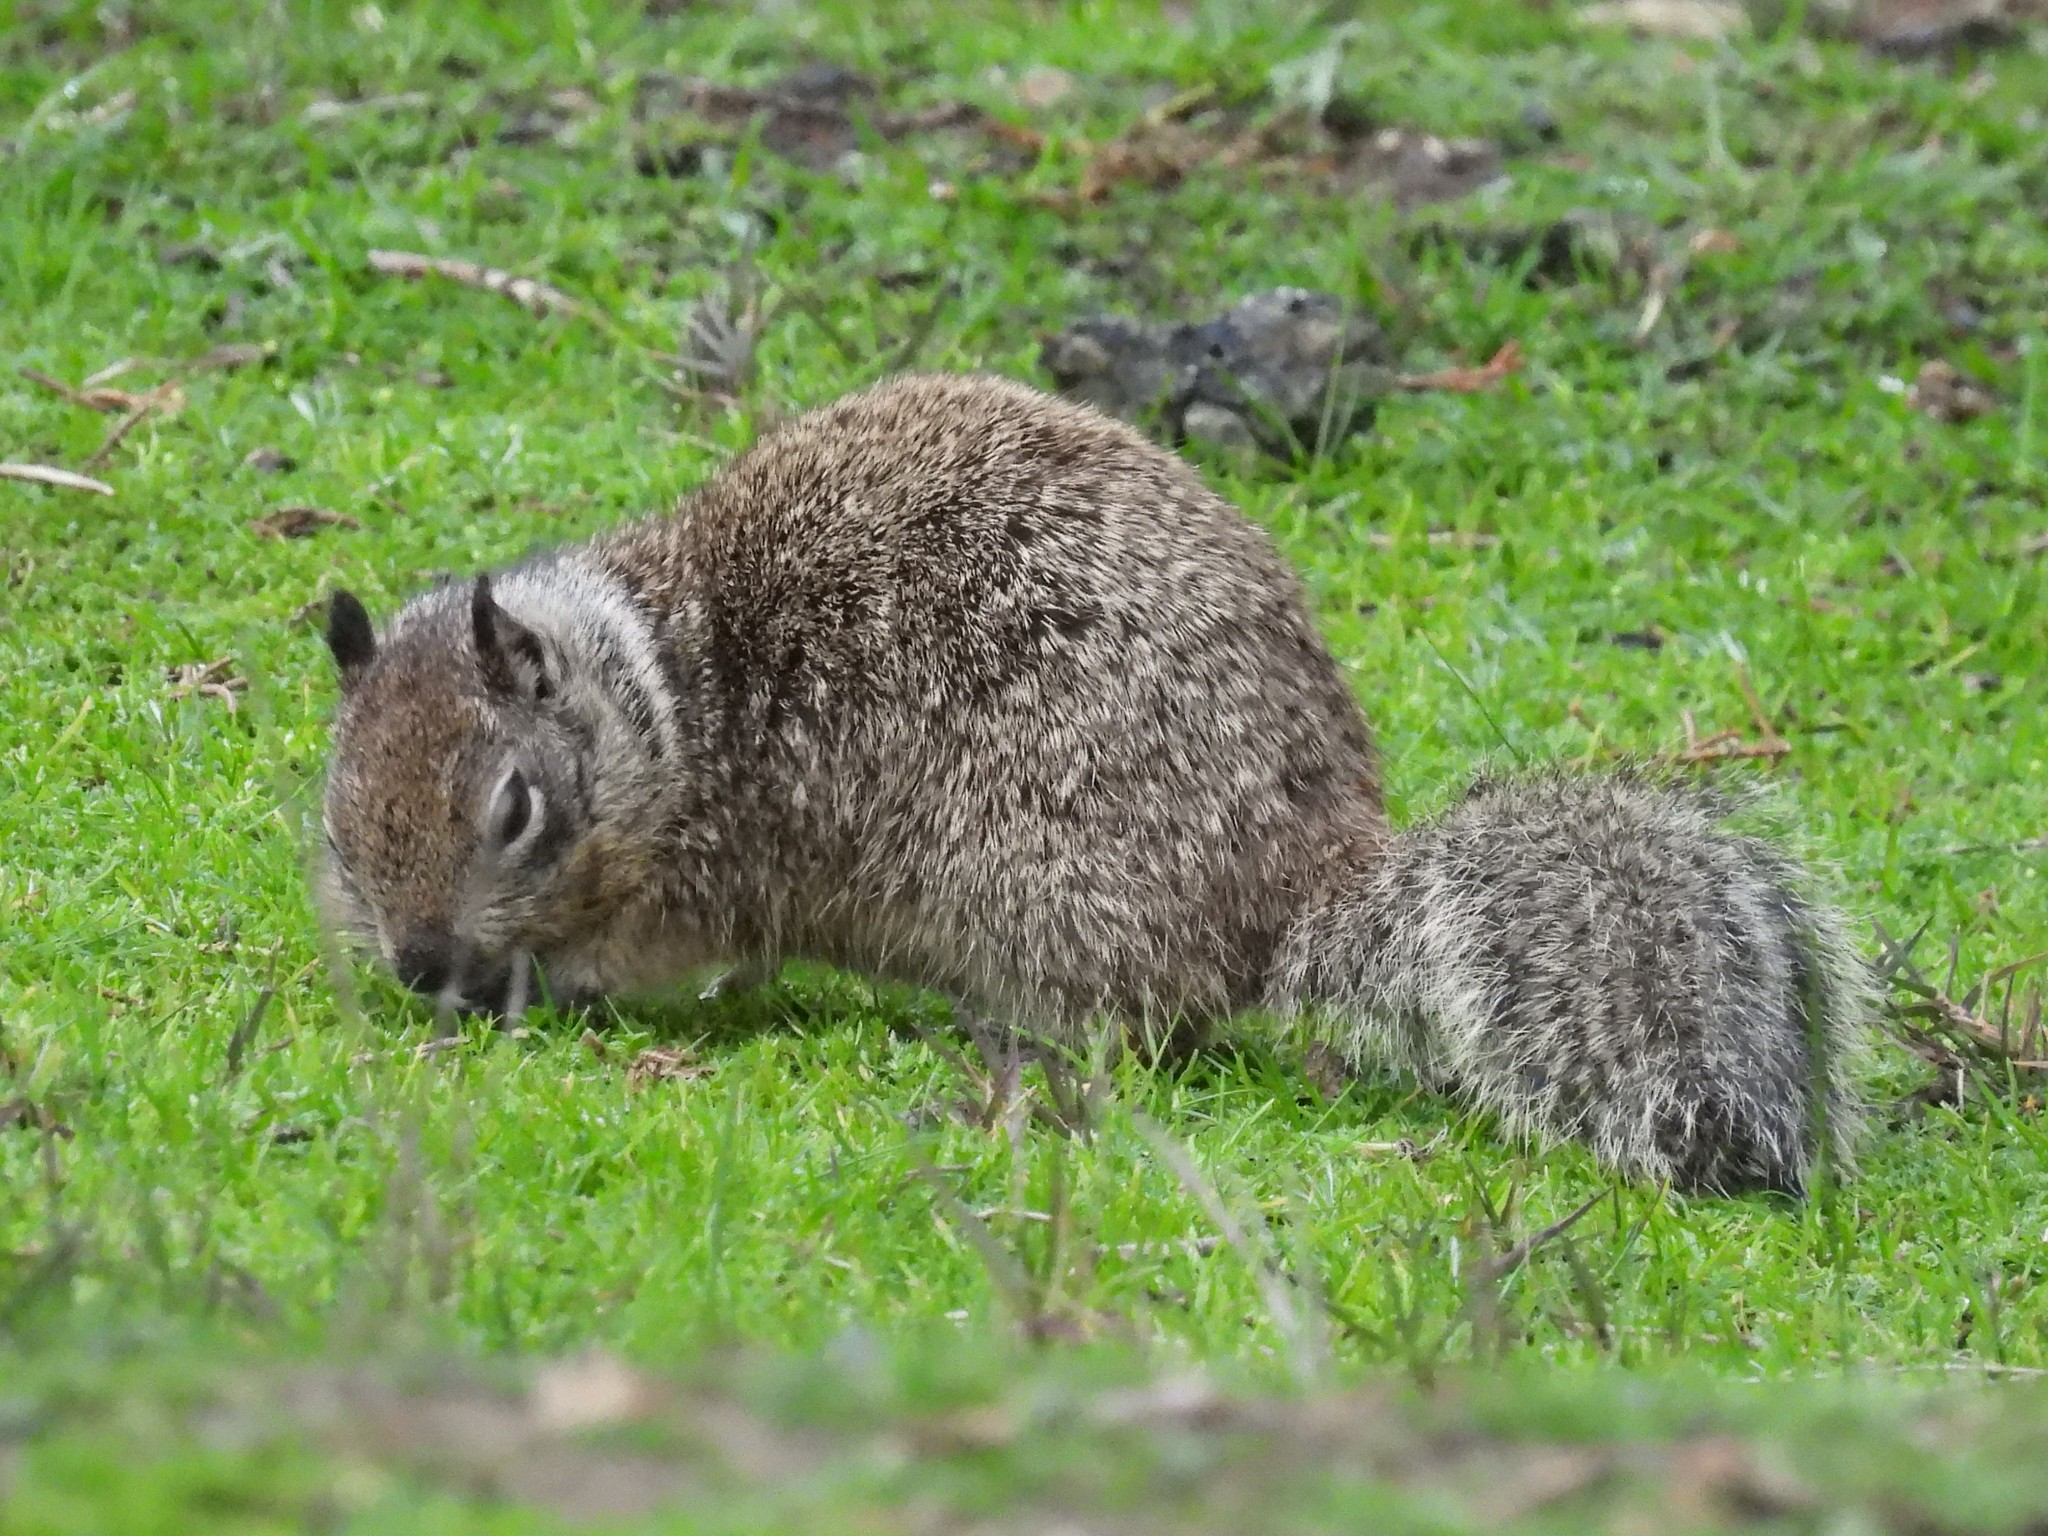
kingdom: Animalia
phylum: Chordata
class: Mammalia
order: Rodentia
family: Sciuridae
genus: Otospermophilus
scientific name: Otospermophilus beecheyi
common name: California ground squirrel
